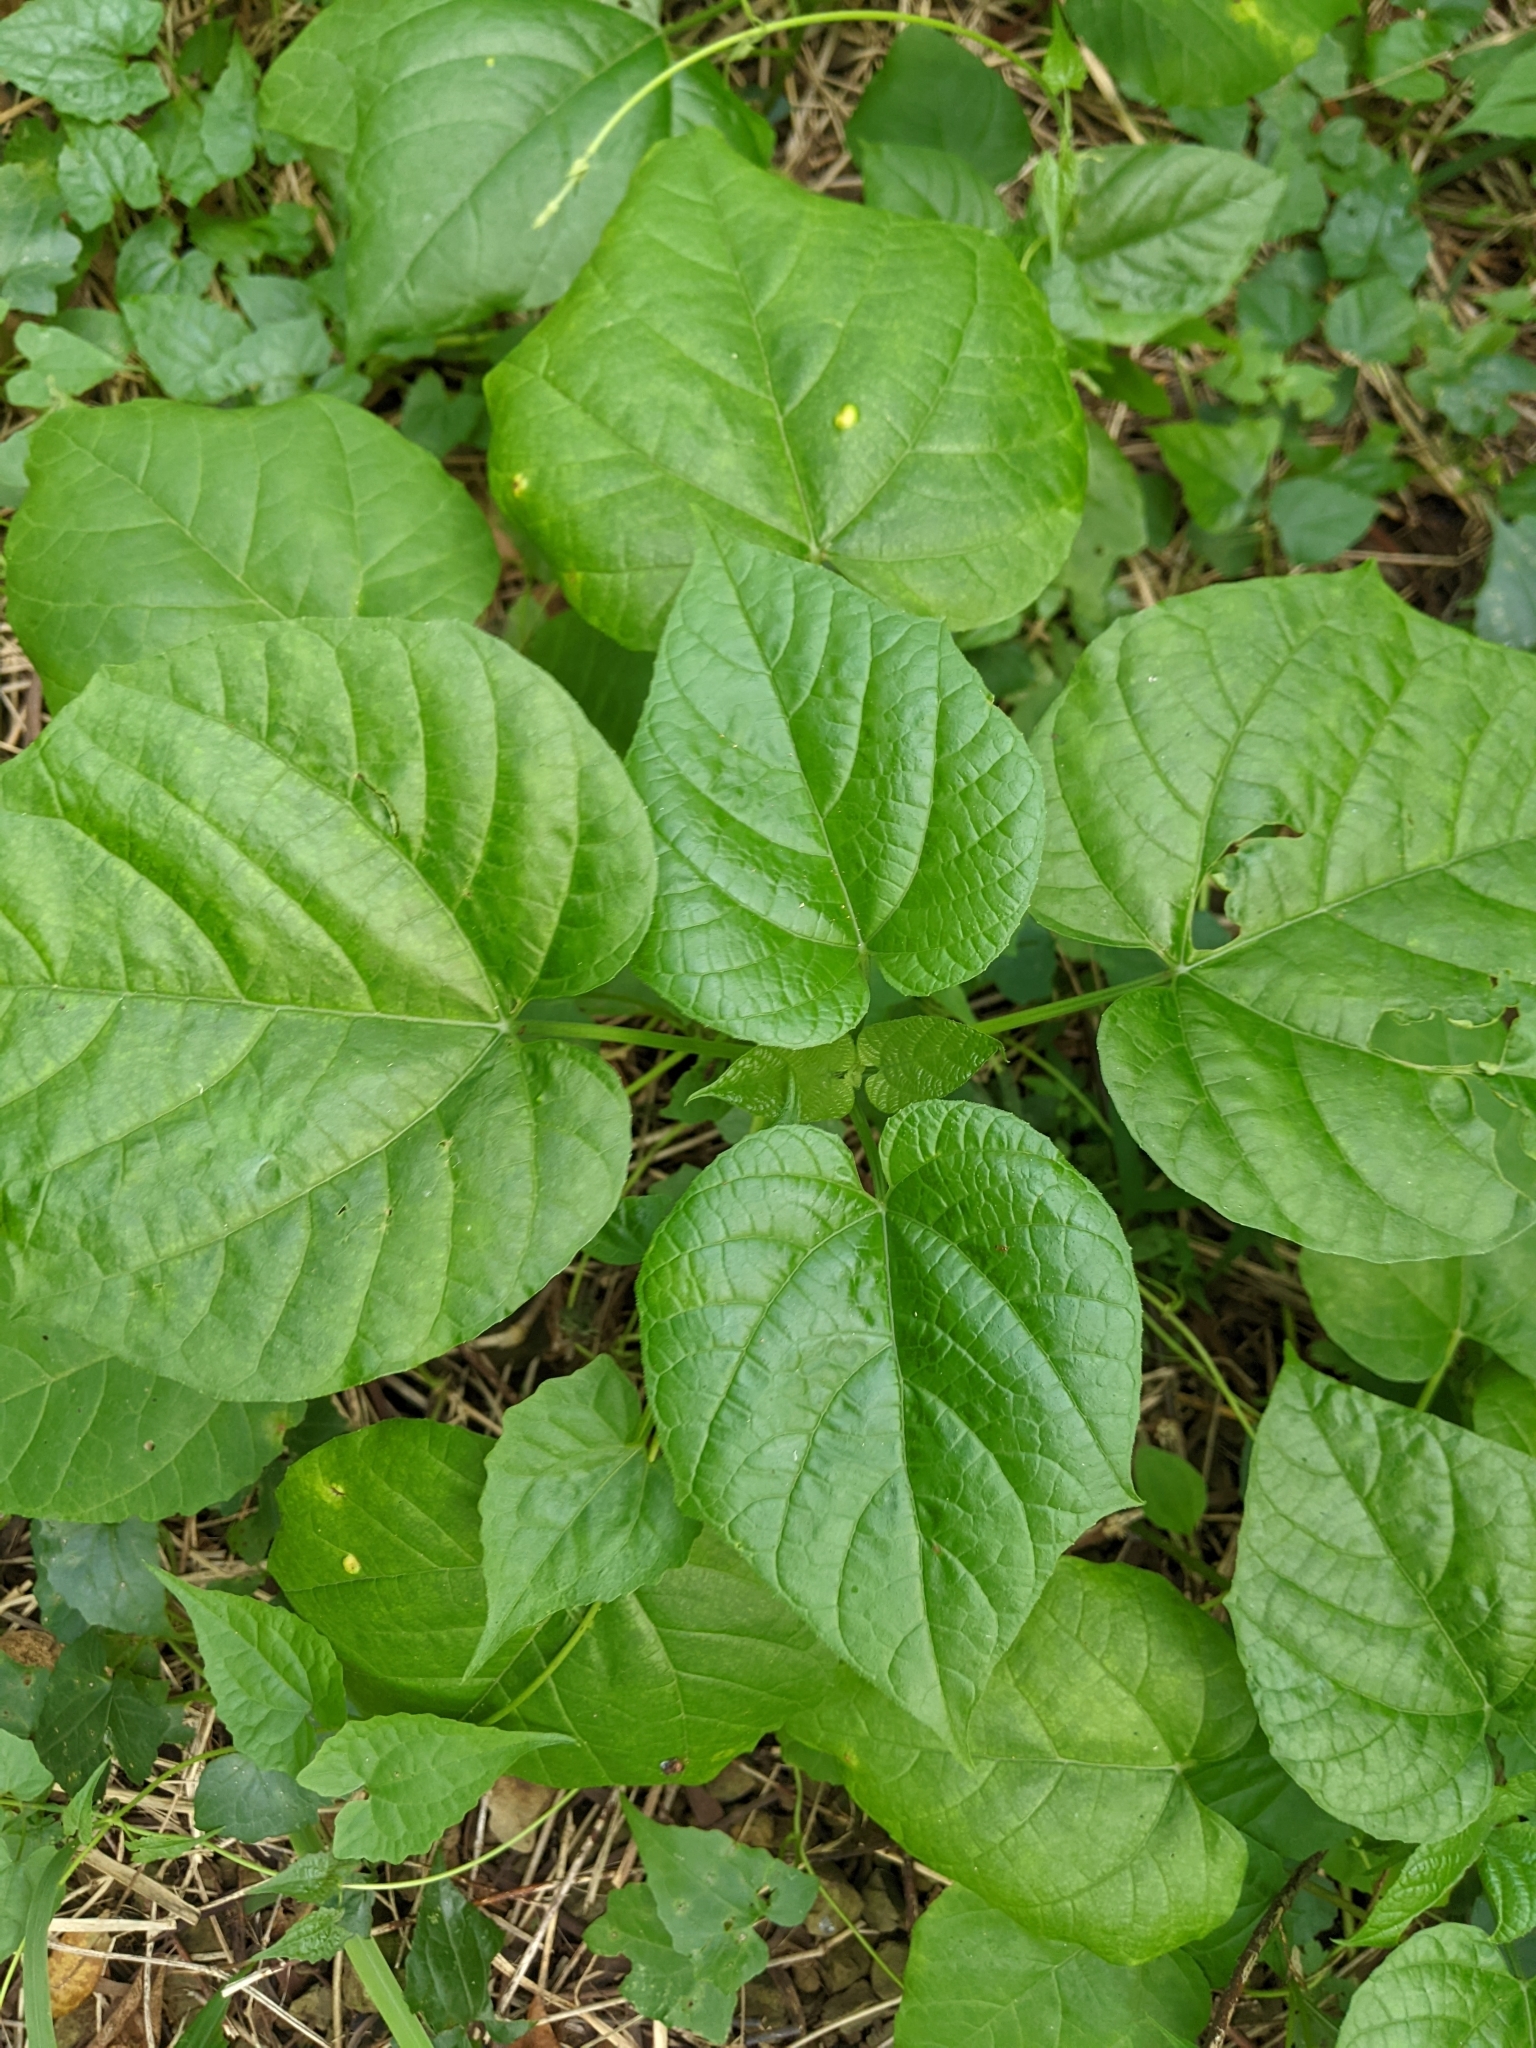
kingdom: Plantae
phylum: Tracheophyta
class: Magnoliopsida
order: Lamiales
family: Lamiaceae
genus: Clerodendrum
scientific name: Clerodendrum japonicum
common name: Japanese glorybower
